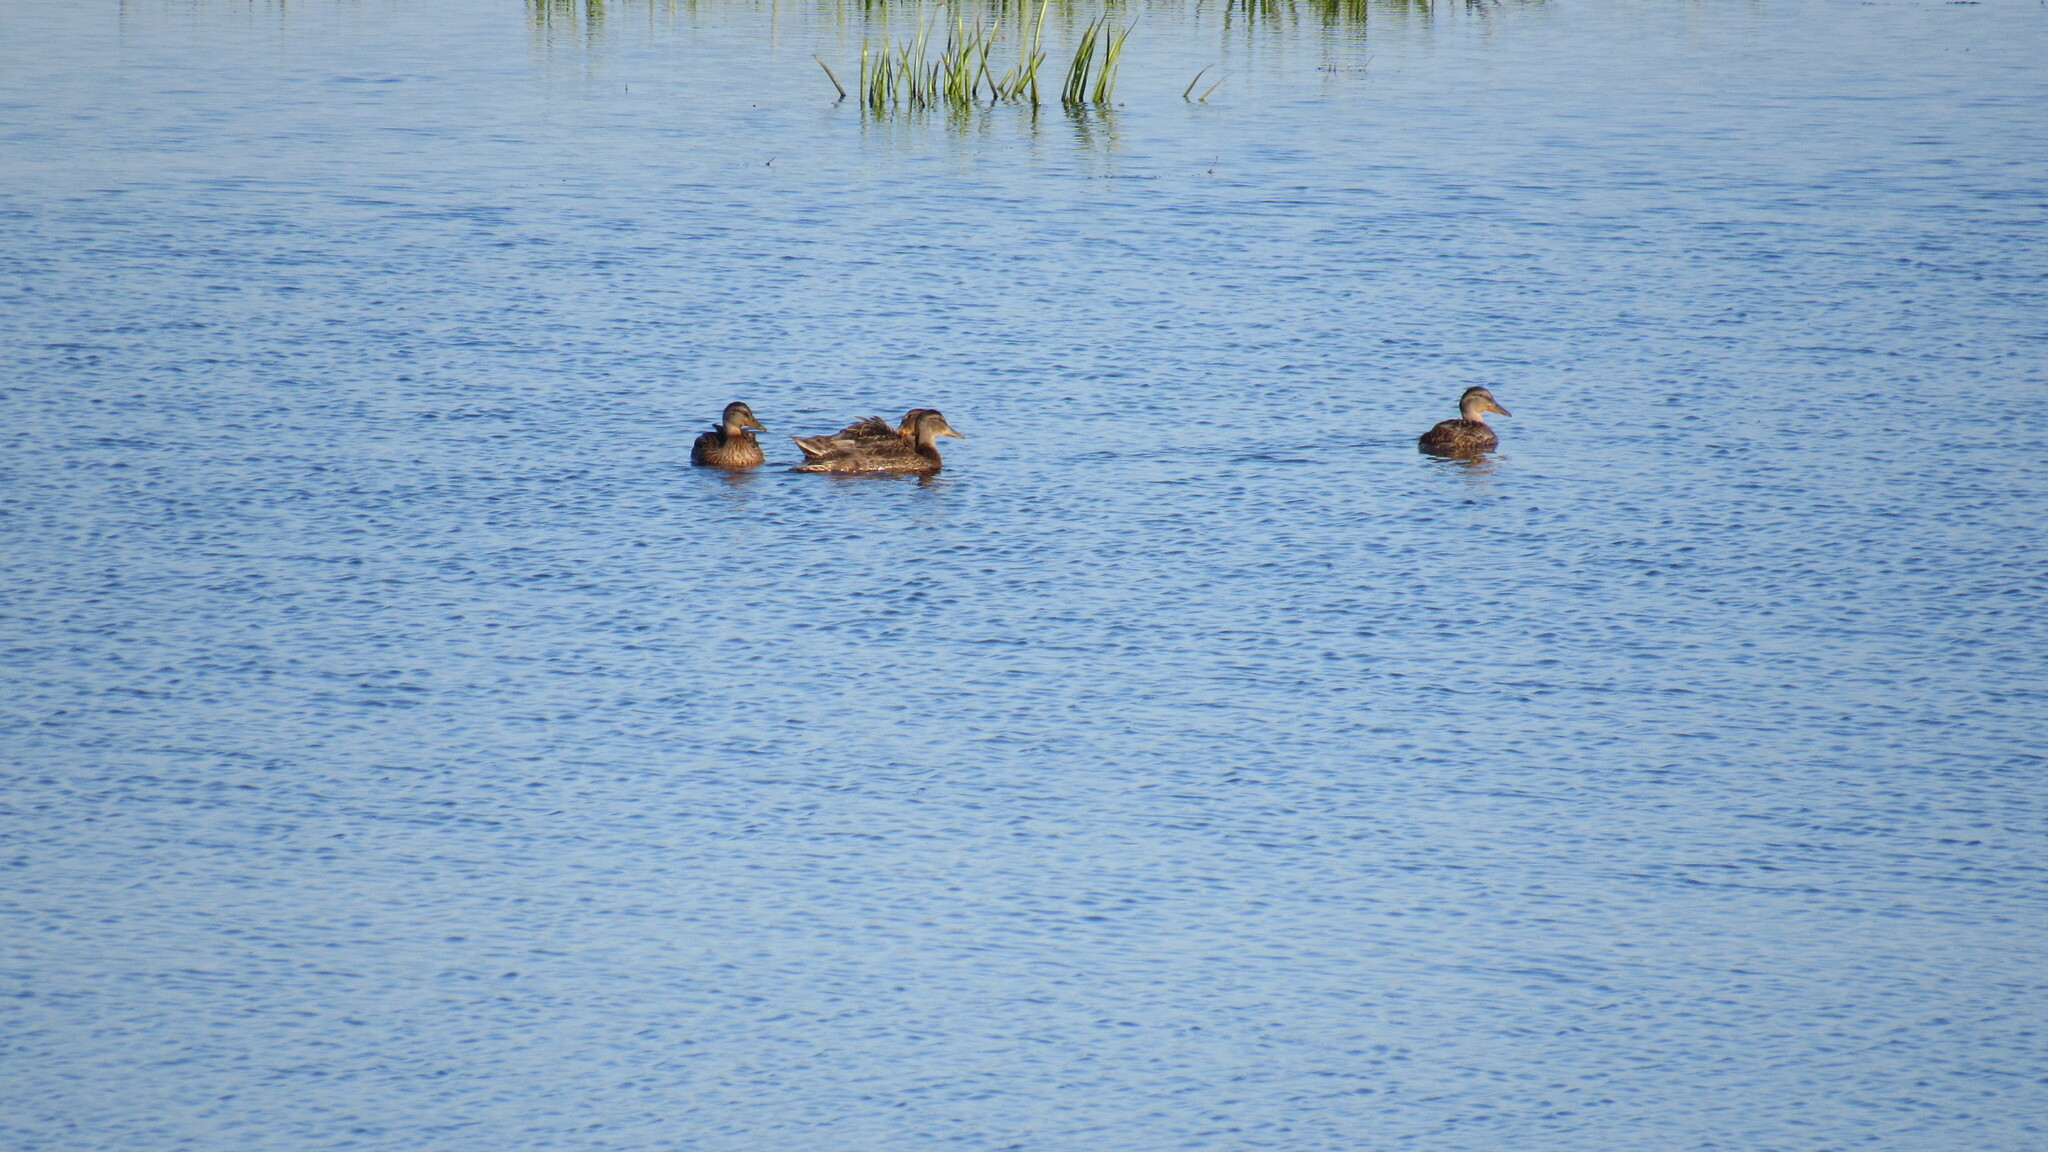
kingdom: Animalia
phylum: Chordata
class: Aves
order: Anseriformes
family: Anatidae
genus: Anas
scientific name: Anas platyrhynchos
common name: Mallard
